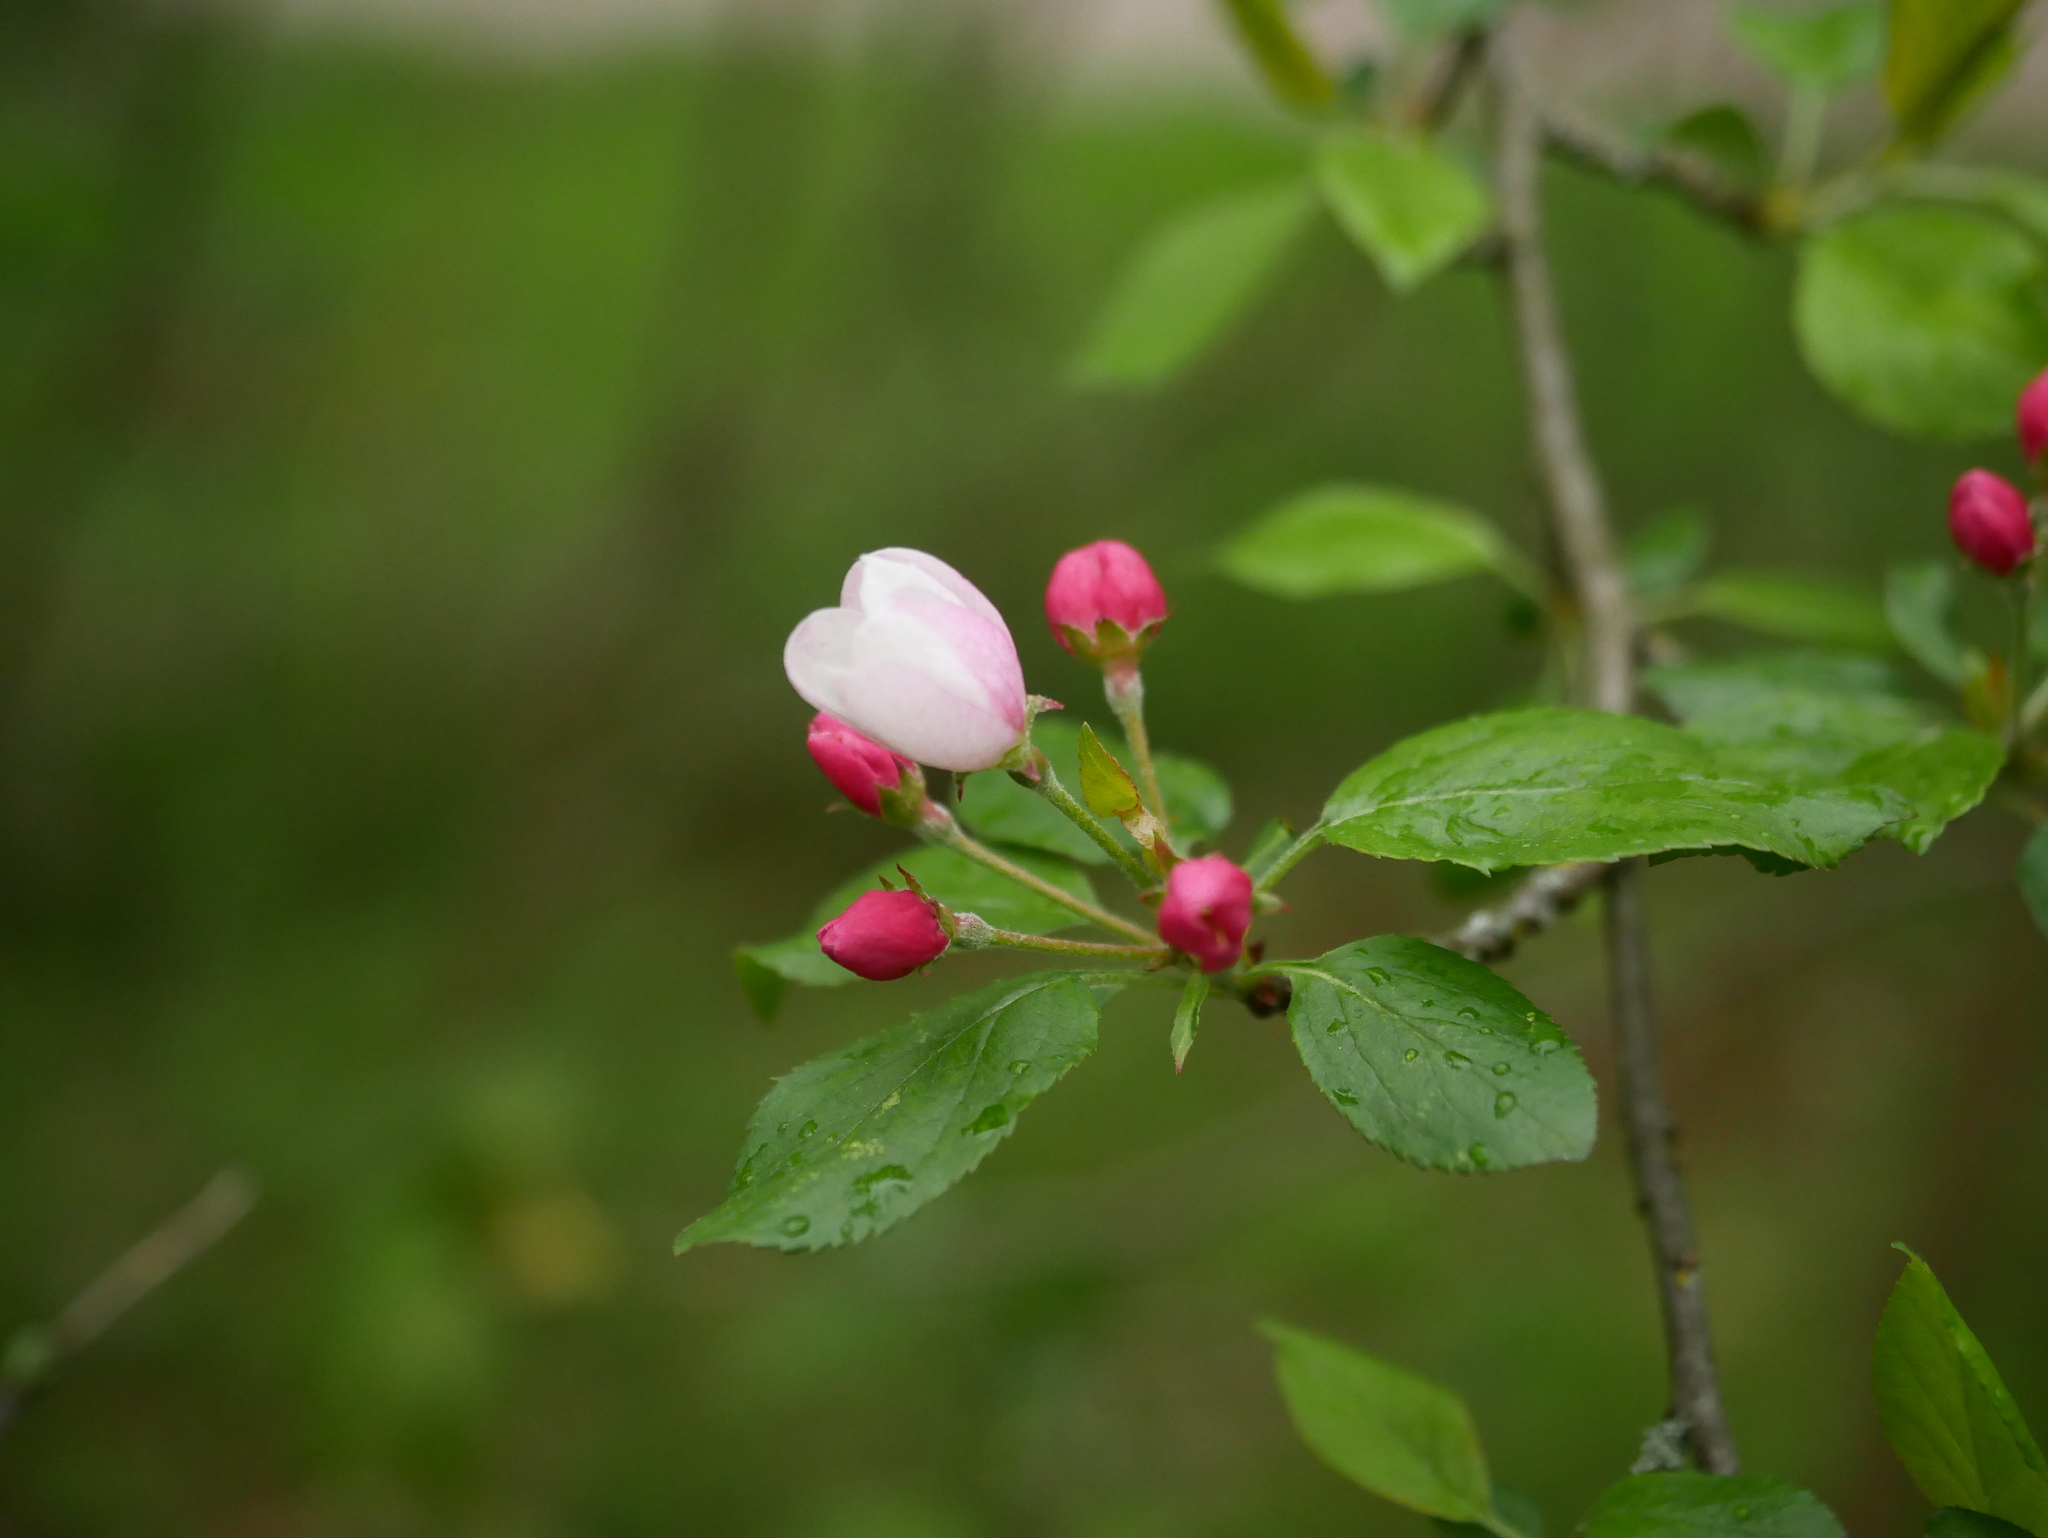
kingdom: Plantae
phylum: Tracheophyta
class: Magnoliopsida
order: Rosales
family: Rosaceae
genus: Malus
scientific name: Malus domestica
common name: Apple
